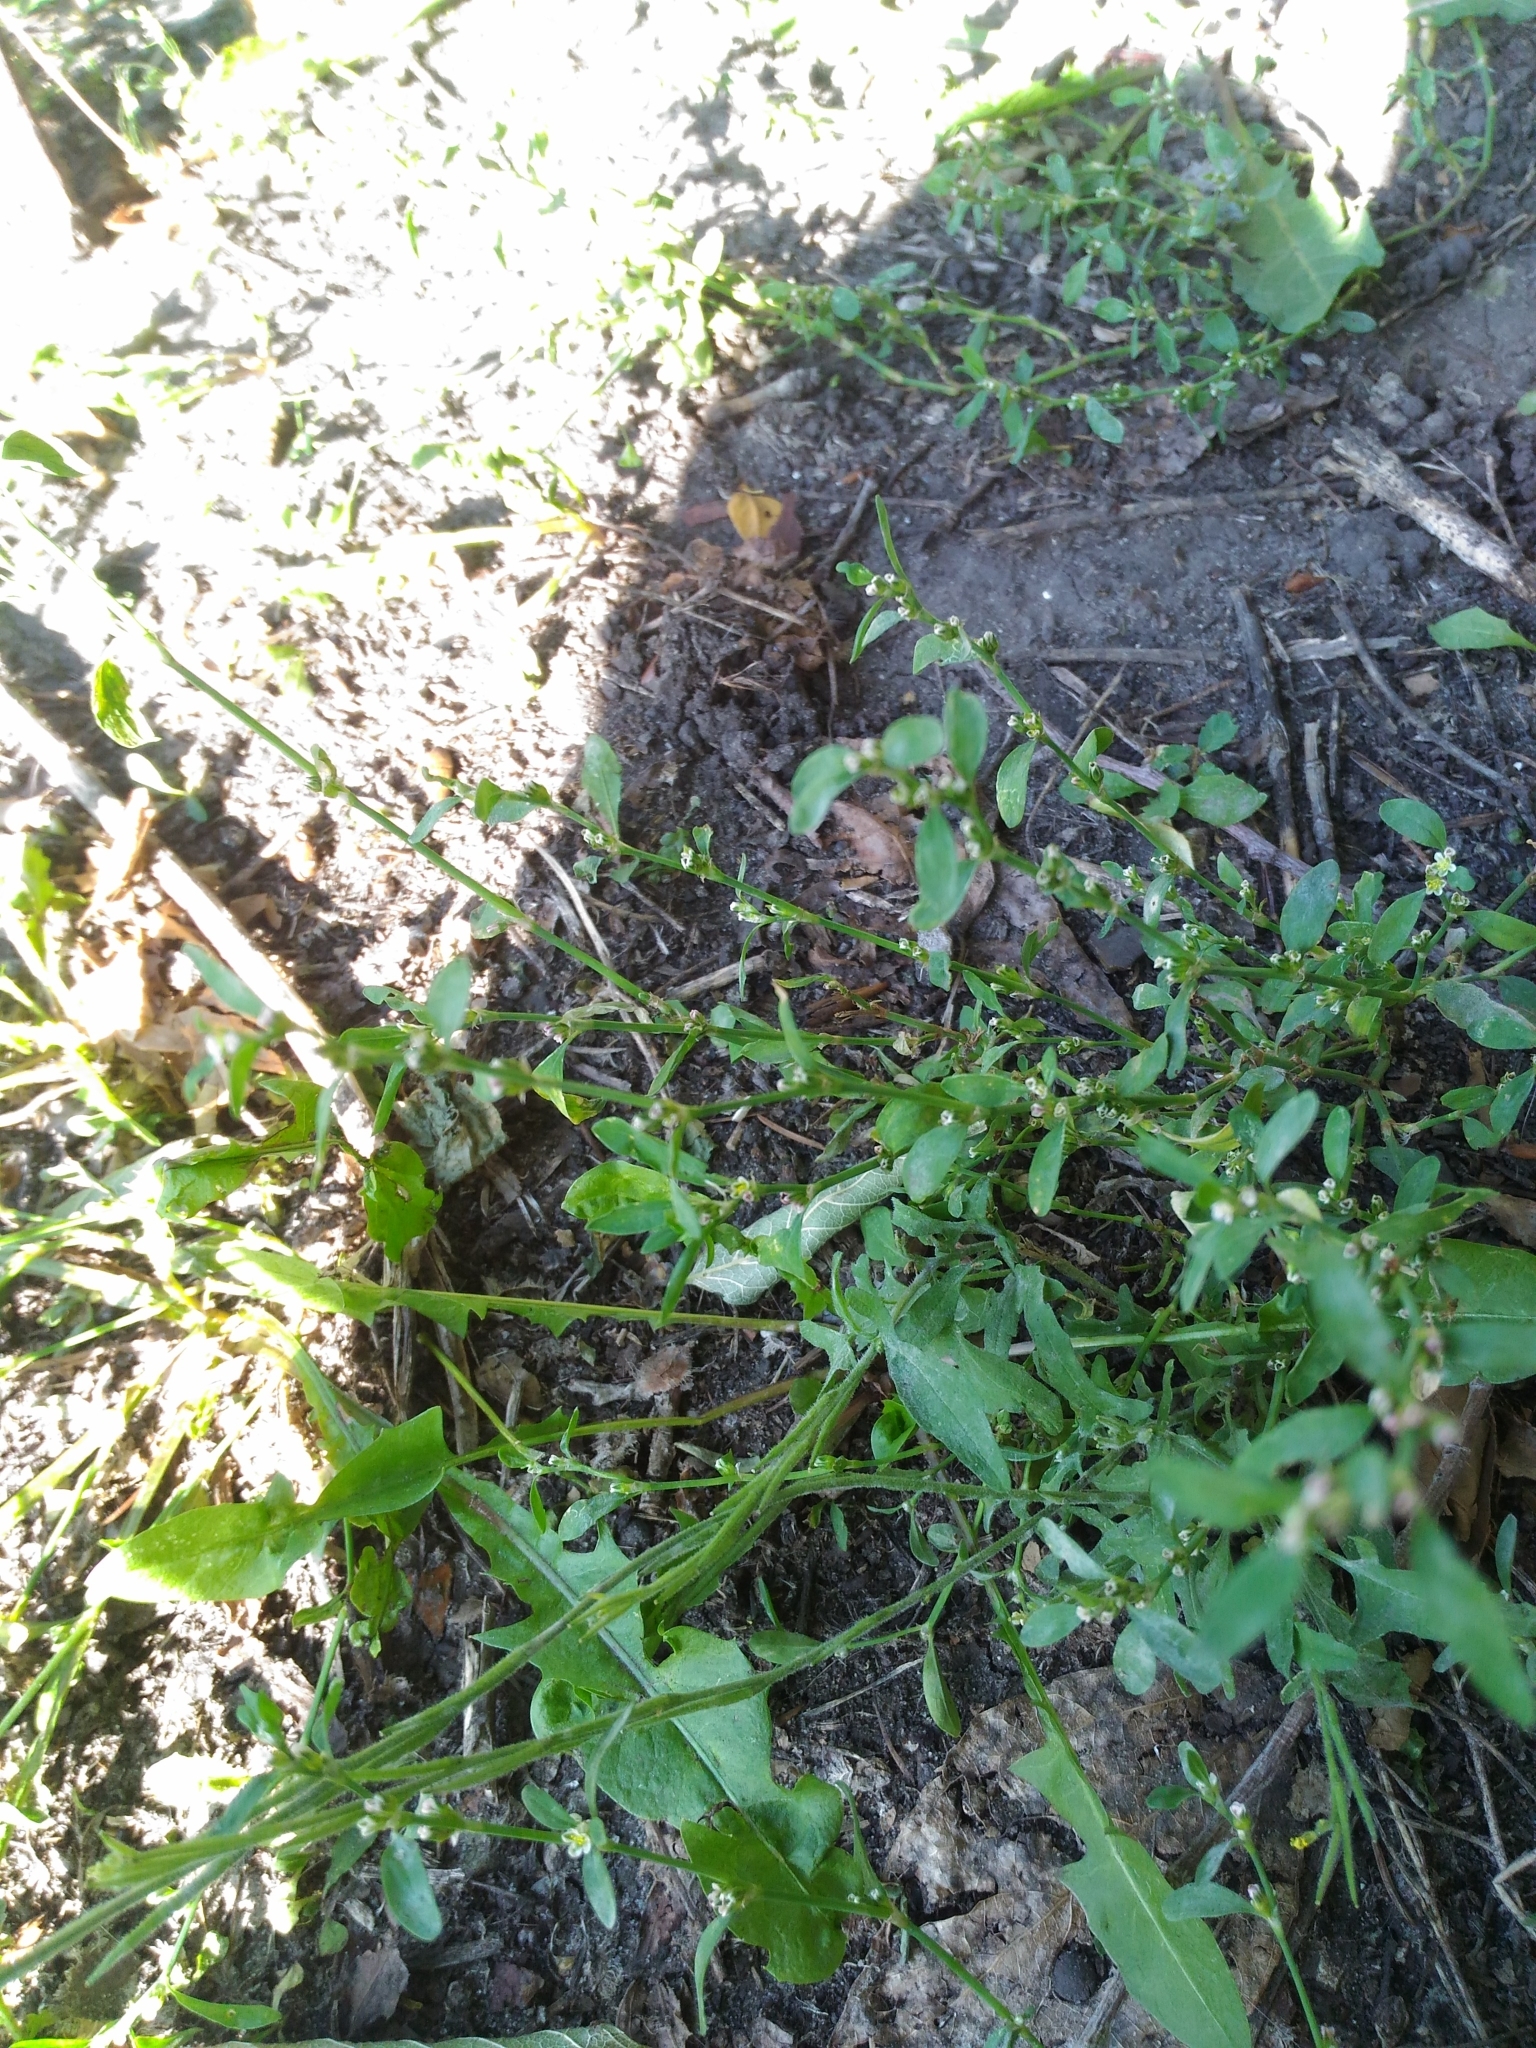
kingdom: Plantae
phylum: Tracheophyta
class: Magnoliopsida
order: Caryophyllales
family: Polygonaceae
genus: Polygonum
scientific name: Polygonum
